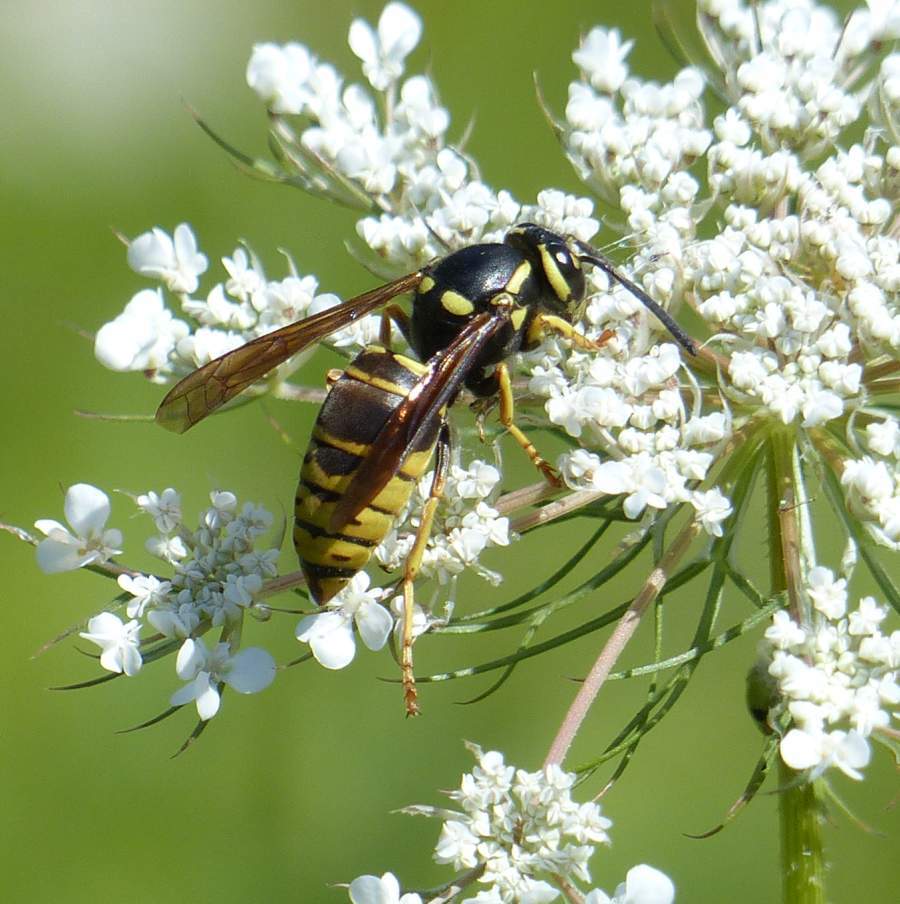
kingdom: Animalia
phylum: Arthropoda
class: Insecta
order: Hymenoptera
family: Vespidae
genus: Vespula
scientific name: Vespula vidua
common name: Widow yellowjacket
